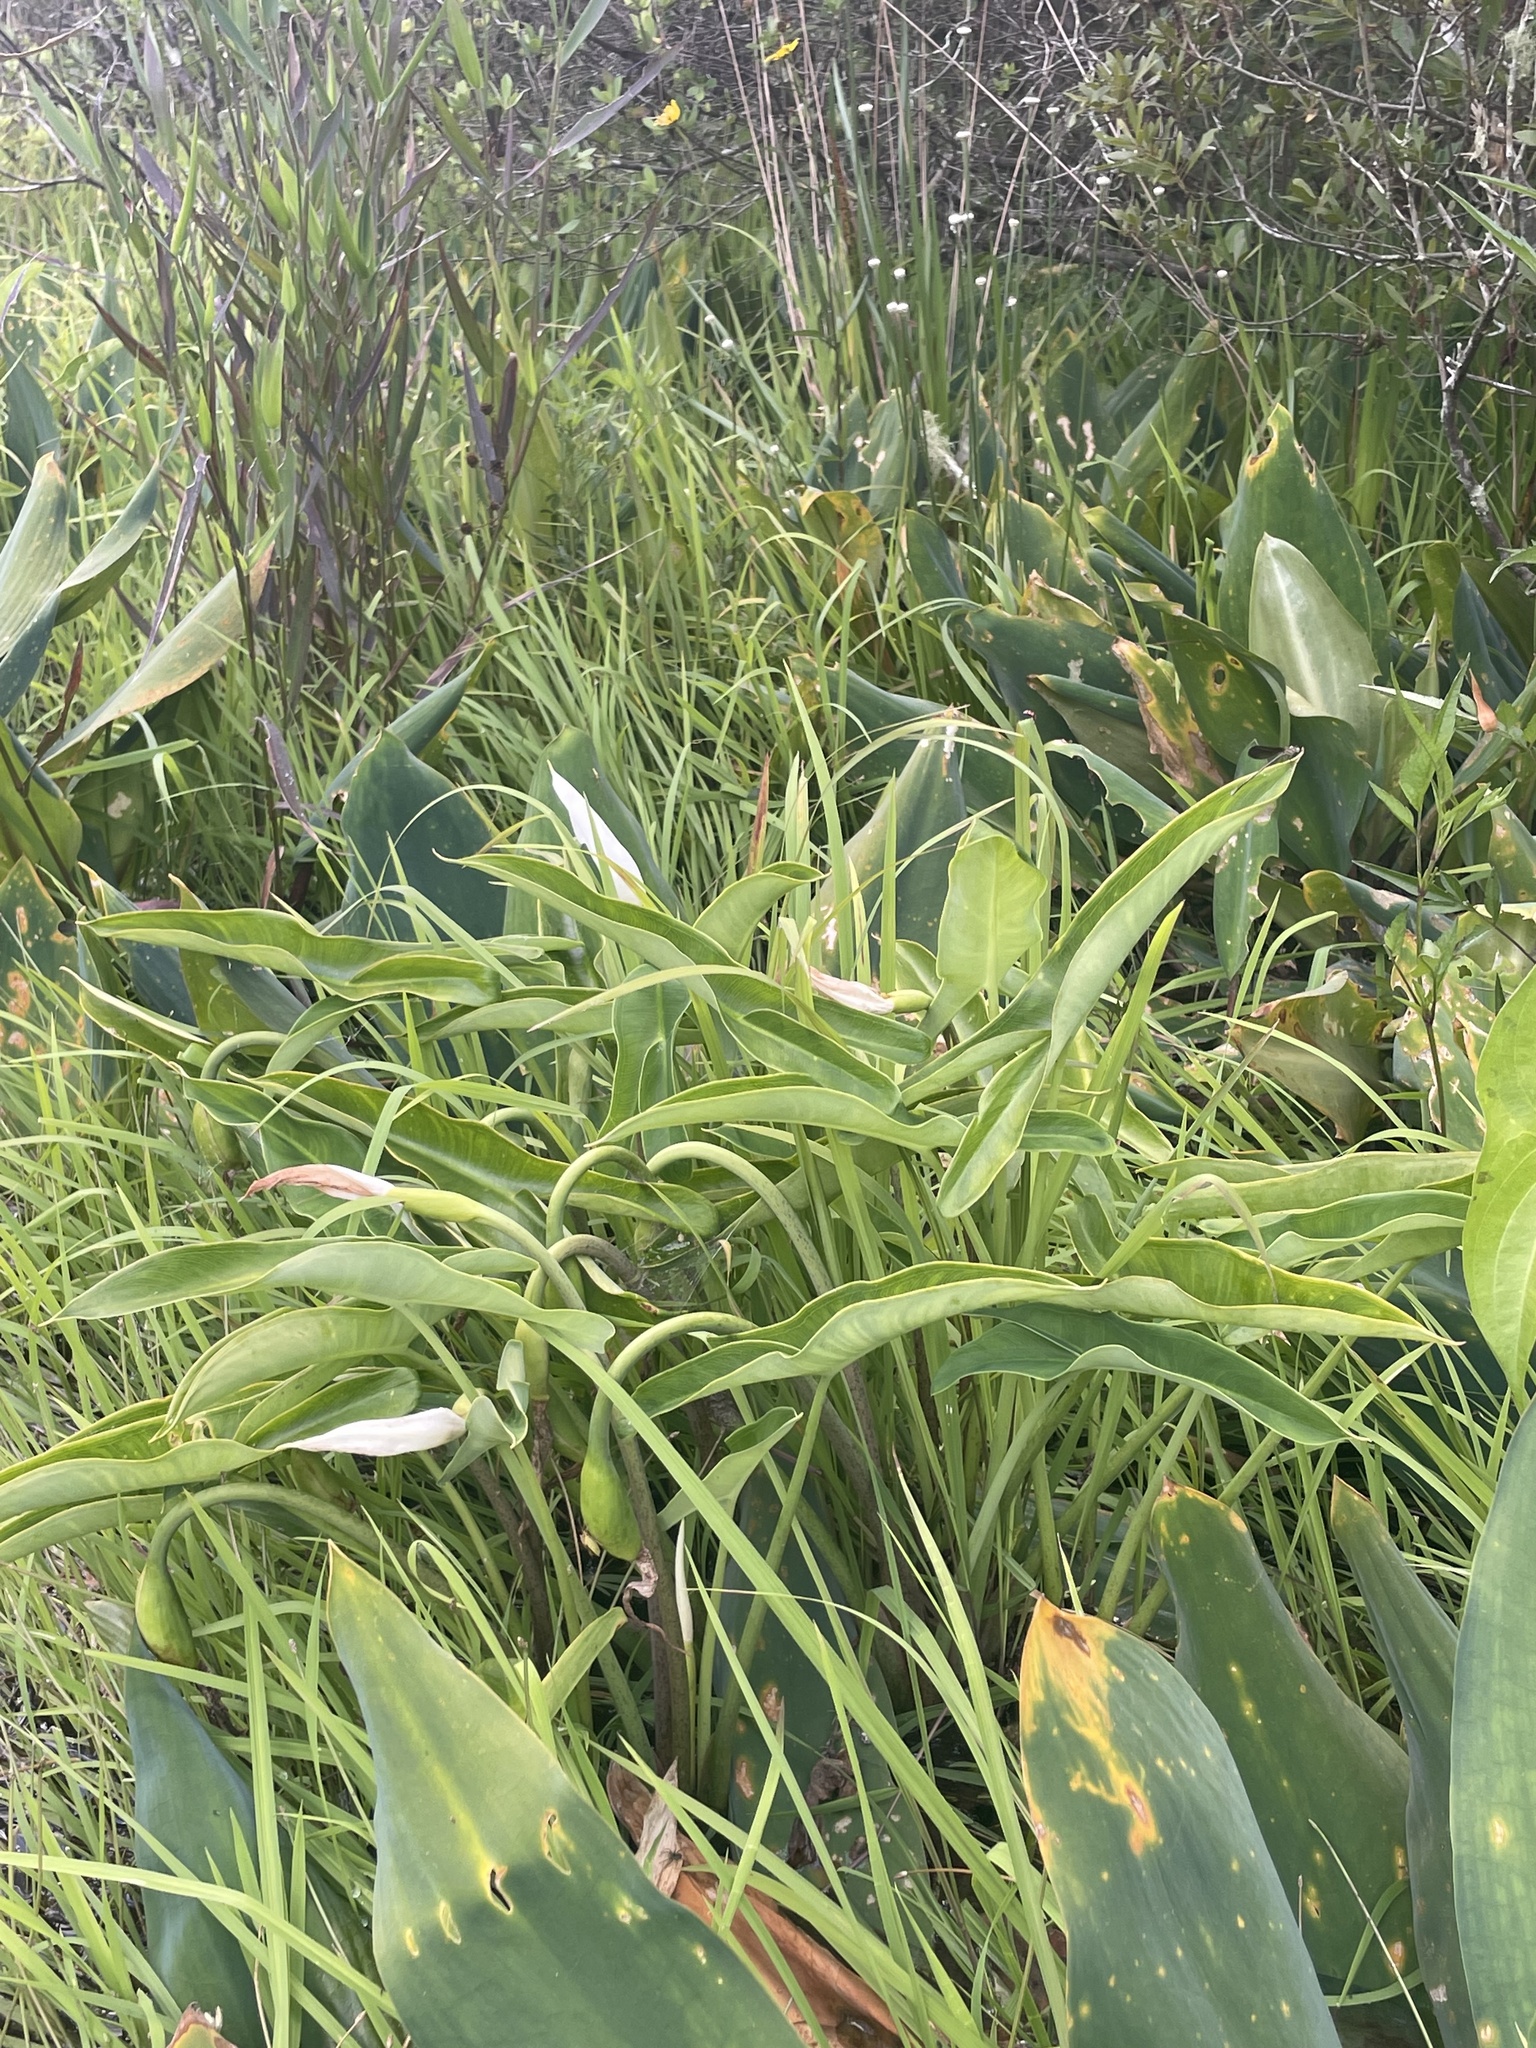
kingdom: Plantae
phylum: Tracheophyta
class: Liliopsida
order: Alismatales
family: Araceae
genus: Peltandra
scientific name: Peltandra sagittifolia
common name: White arrow arum
